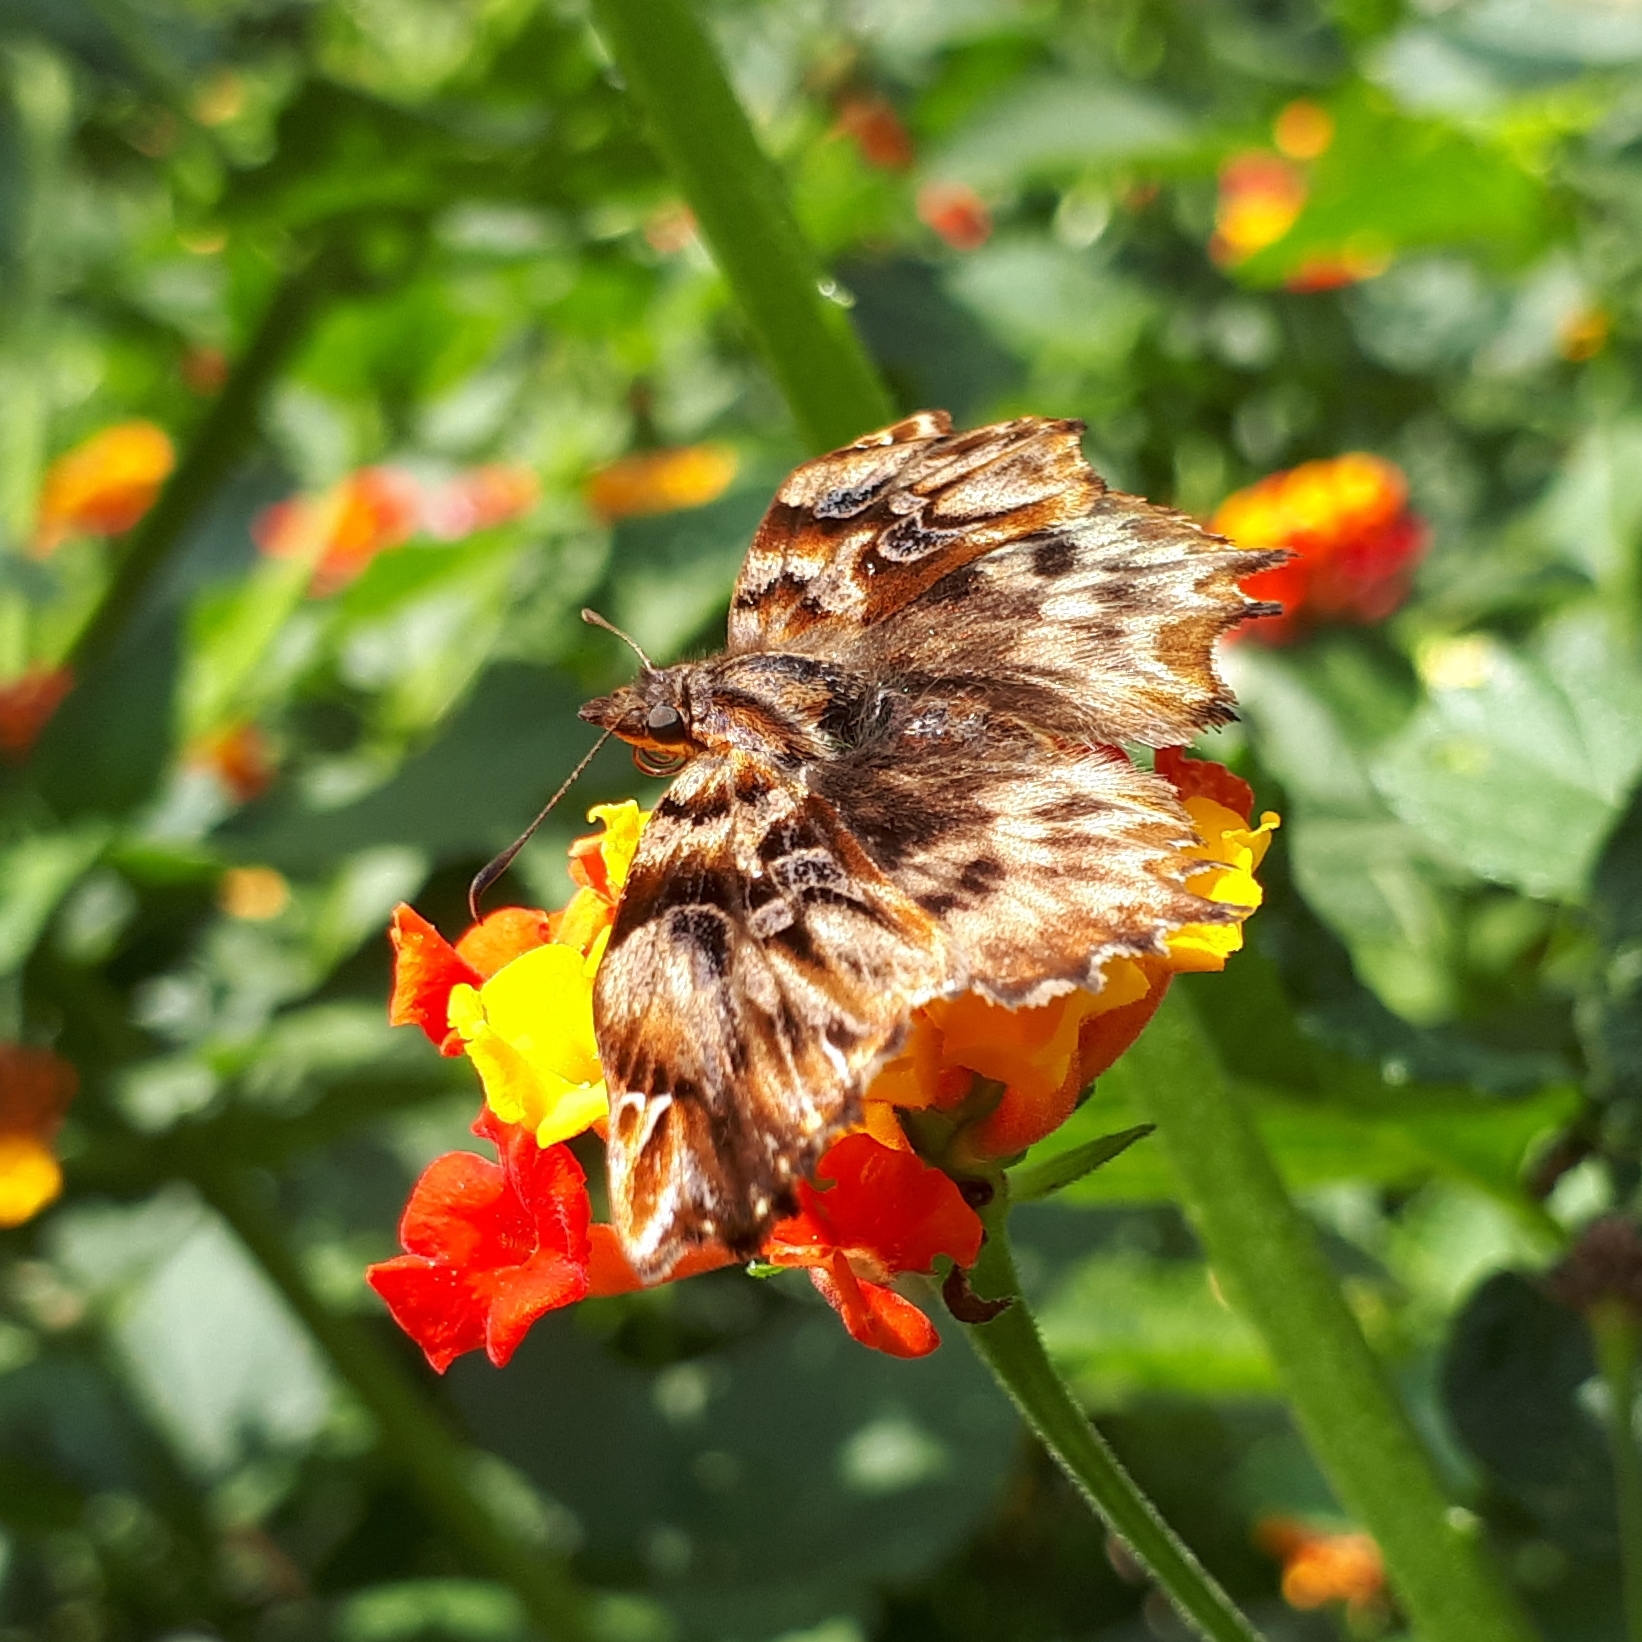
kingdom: Animalia
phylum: Arthropoda
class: Insecta
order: Lepidoptera
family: Hesperiidae
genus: Noctuana
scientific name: Noctuana diurna
